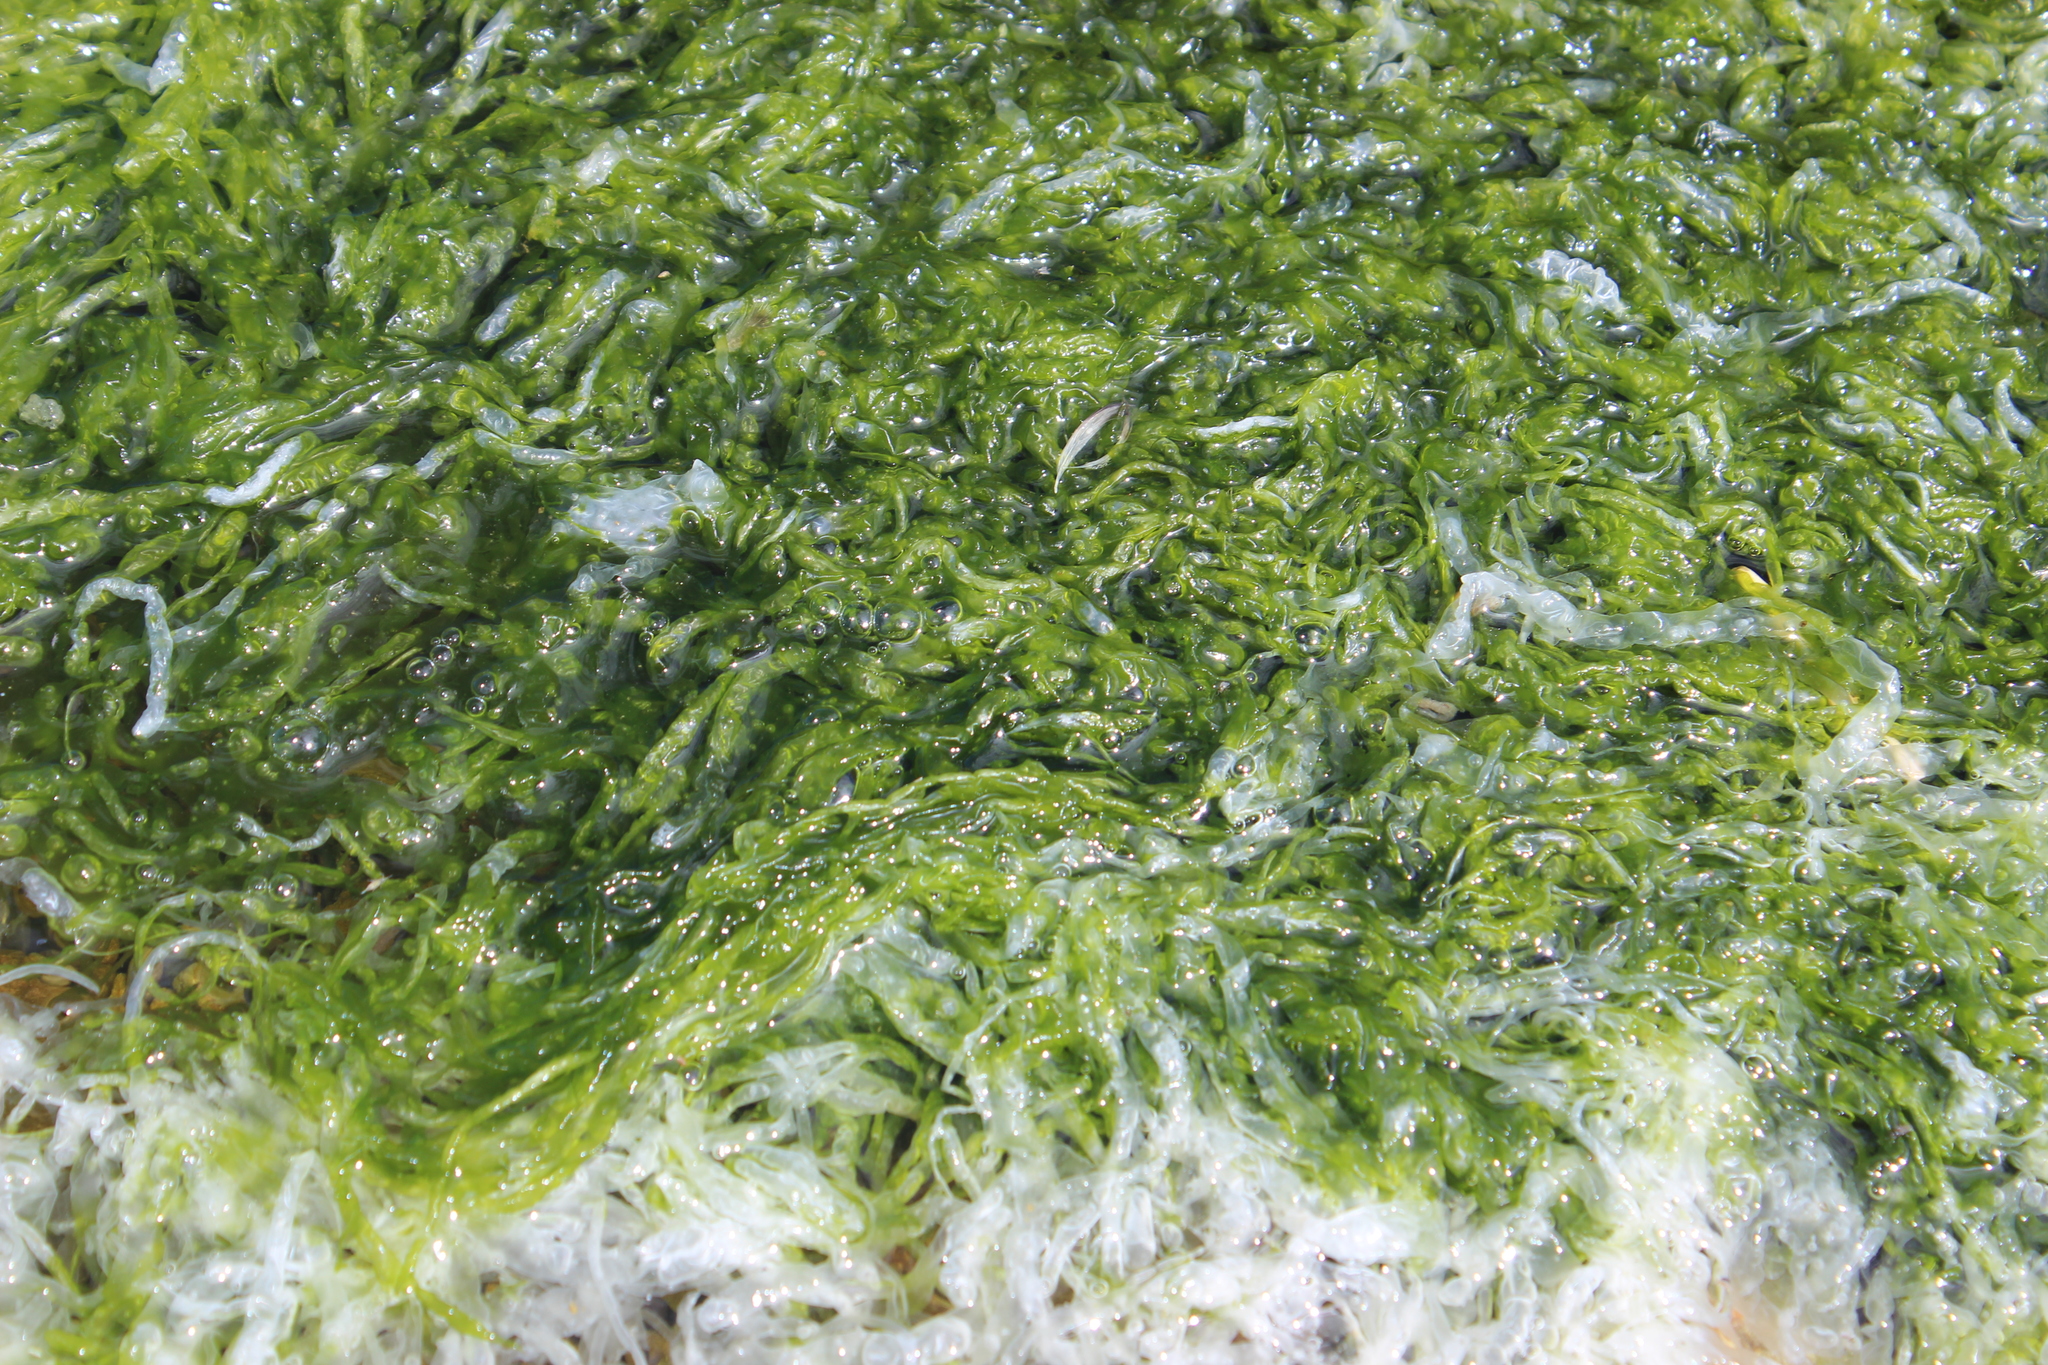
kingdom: Plantae
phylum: Chlorophyta
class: Ulvophyceae
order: Ulvales
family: Ulvaceae
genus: Ulva
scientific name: Ulva intestinalis
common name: Gut weed
